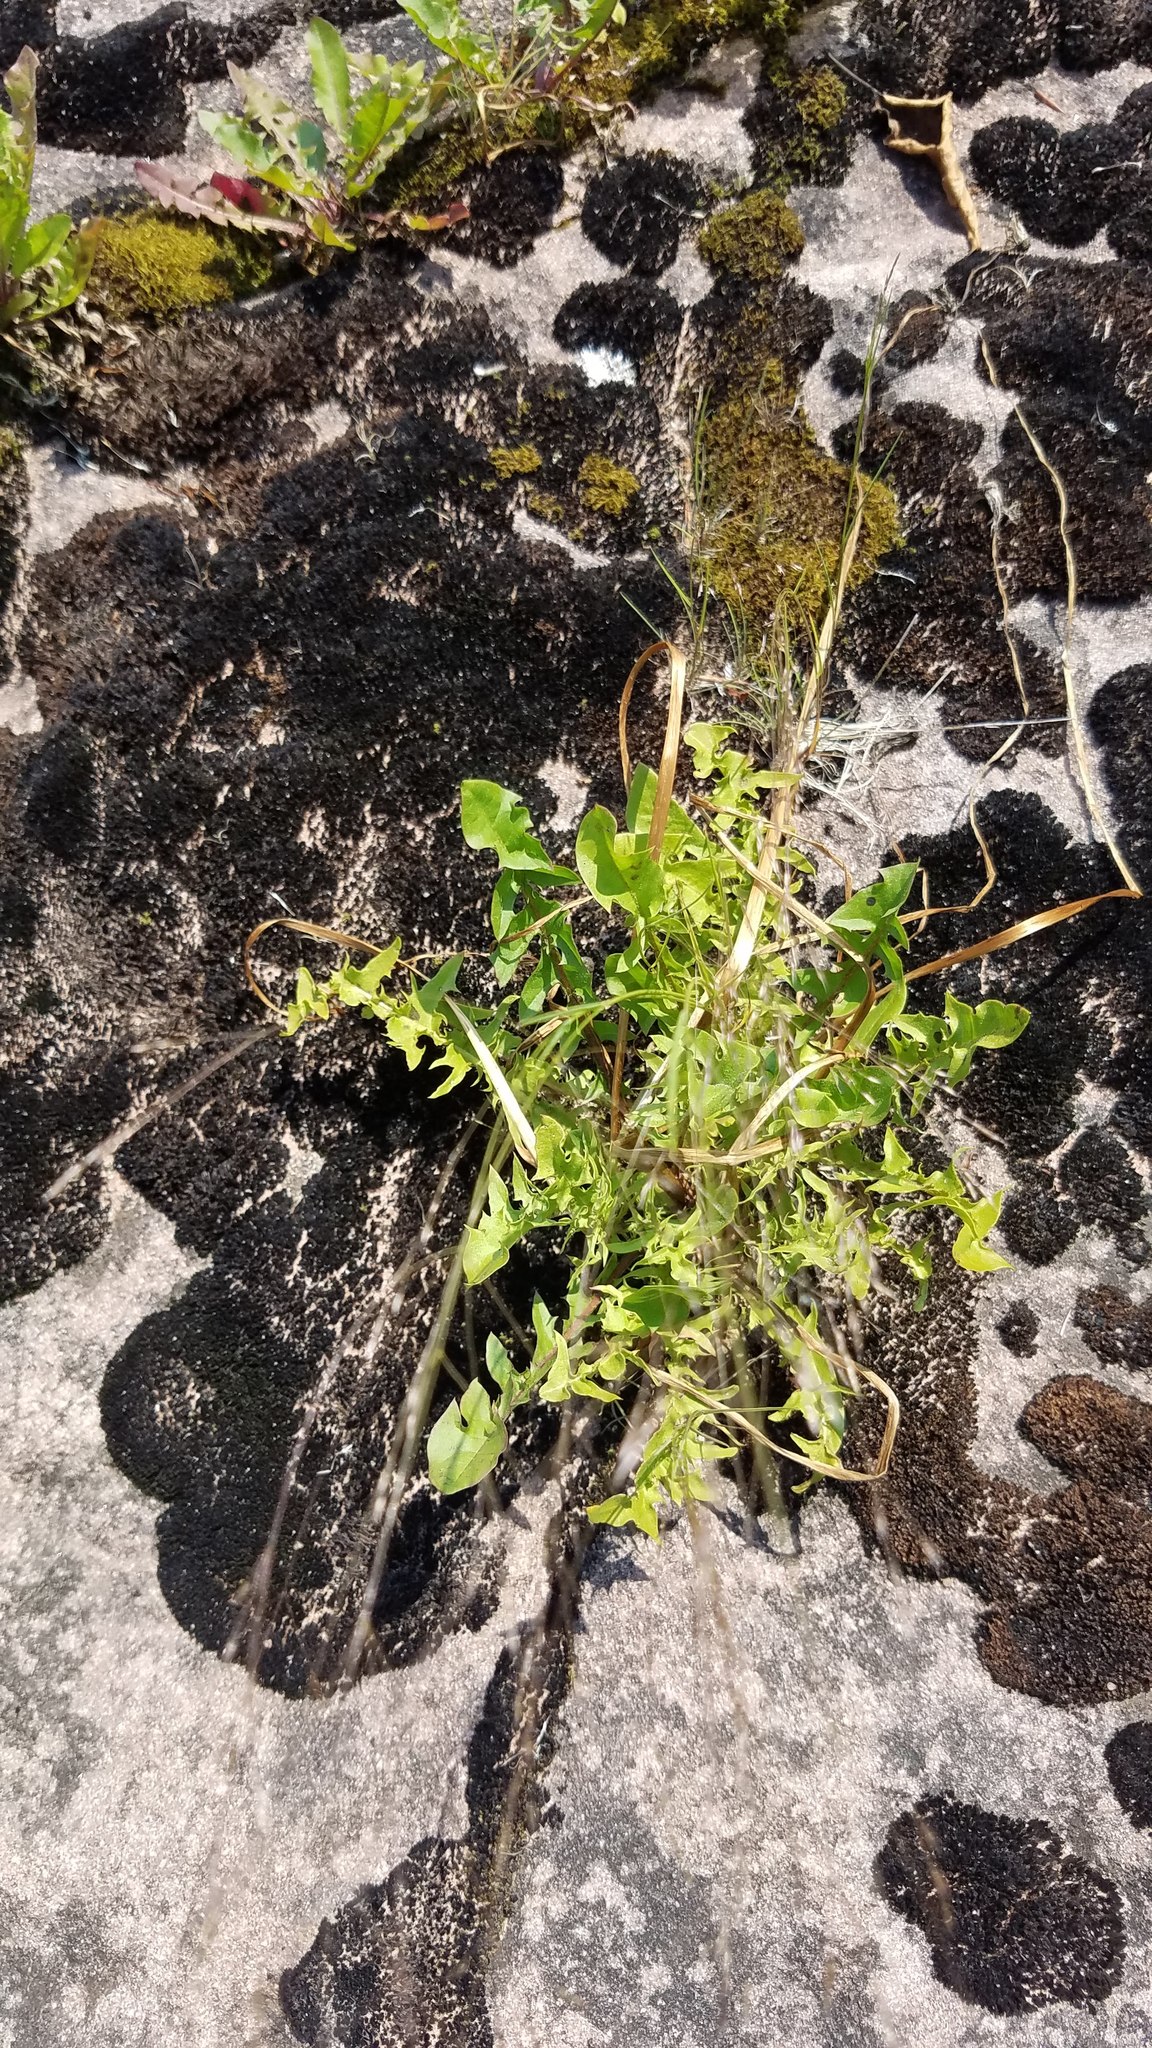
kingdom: Plantae
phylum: Tracheophyta
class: Magnoliopsida
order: Asterales
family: Asteraceae
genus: Taraxacum
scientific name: Taraxacum officinale
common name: Common dandelion
